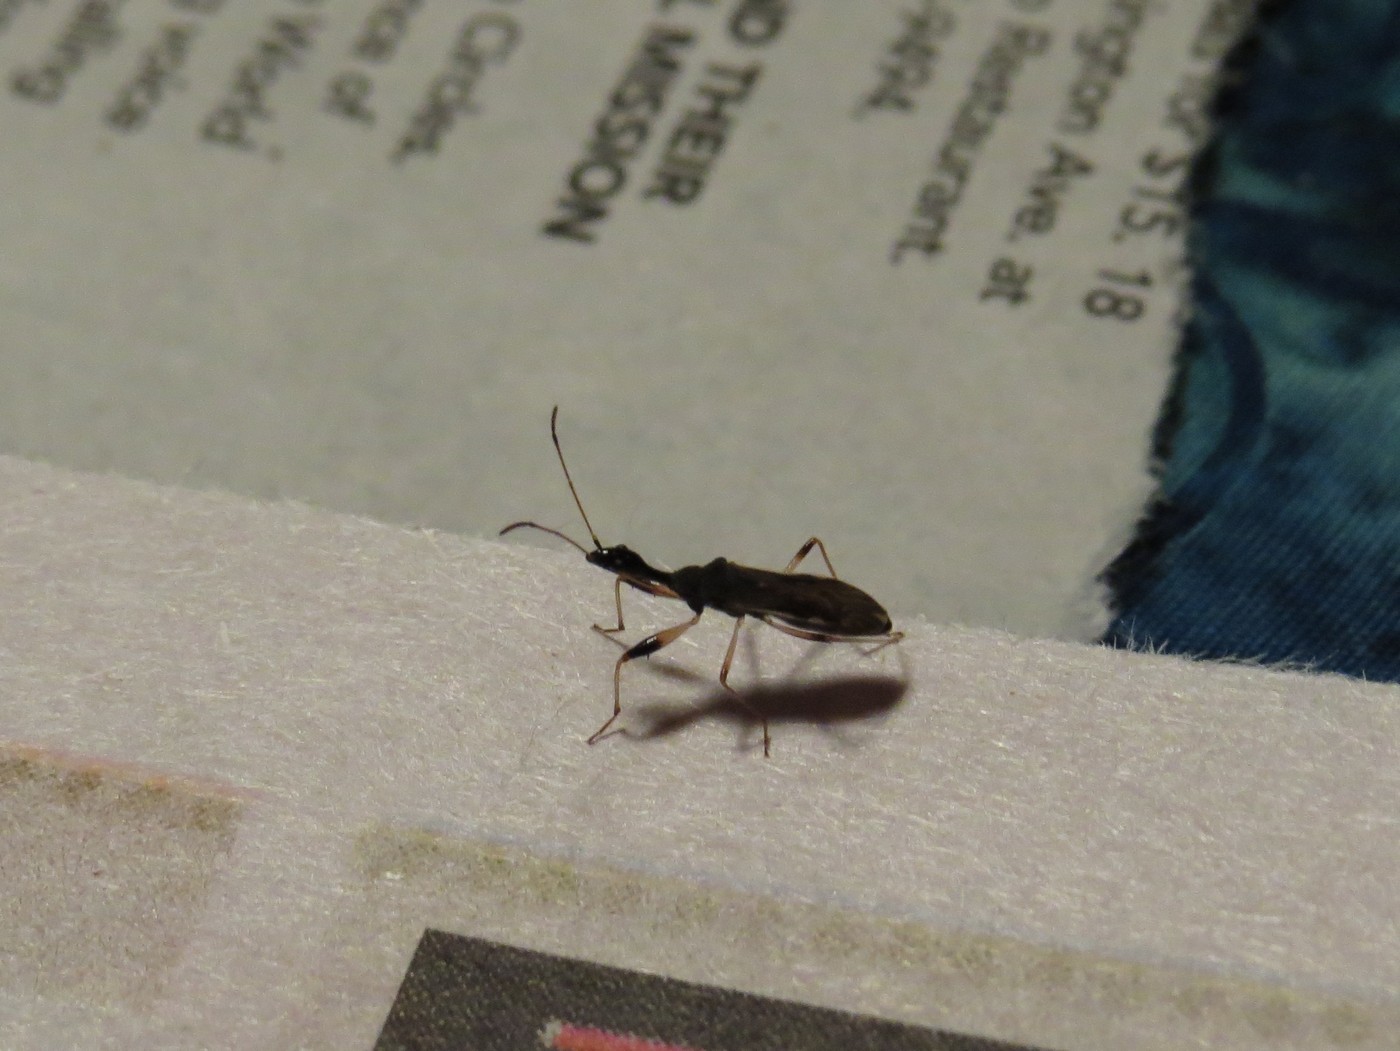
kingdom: Animalia
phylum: Arthropoda
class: Insecta
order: Hemiptera
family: Rhyparochromidae
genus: Myodocha
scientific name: Myodocha serripes
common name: Long-necked seed bug
